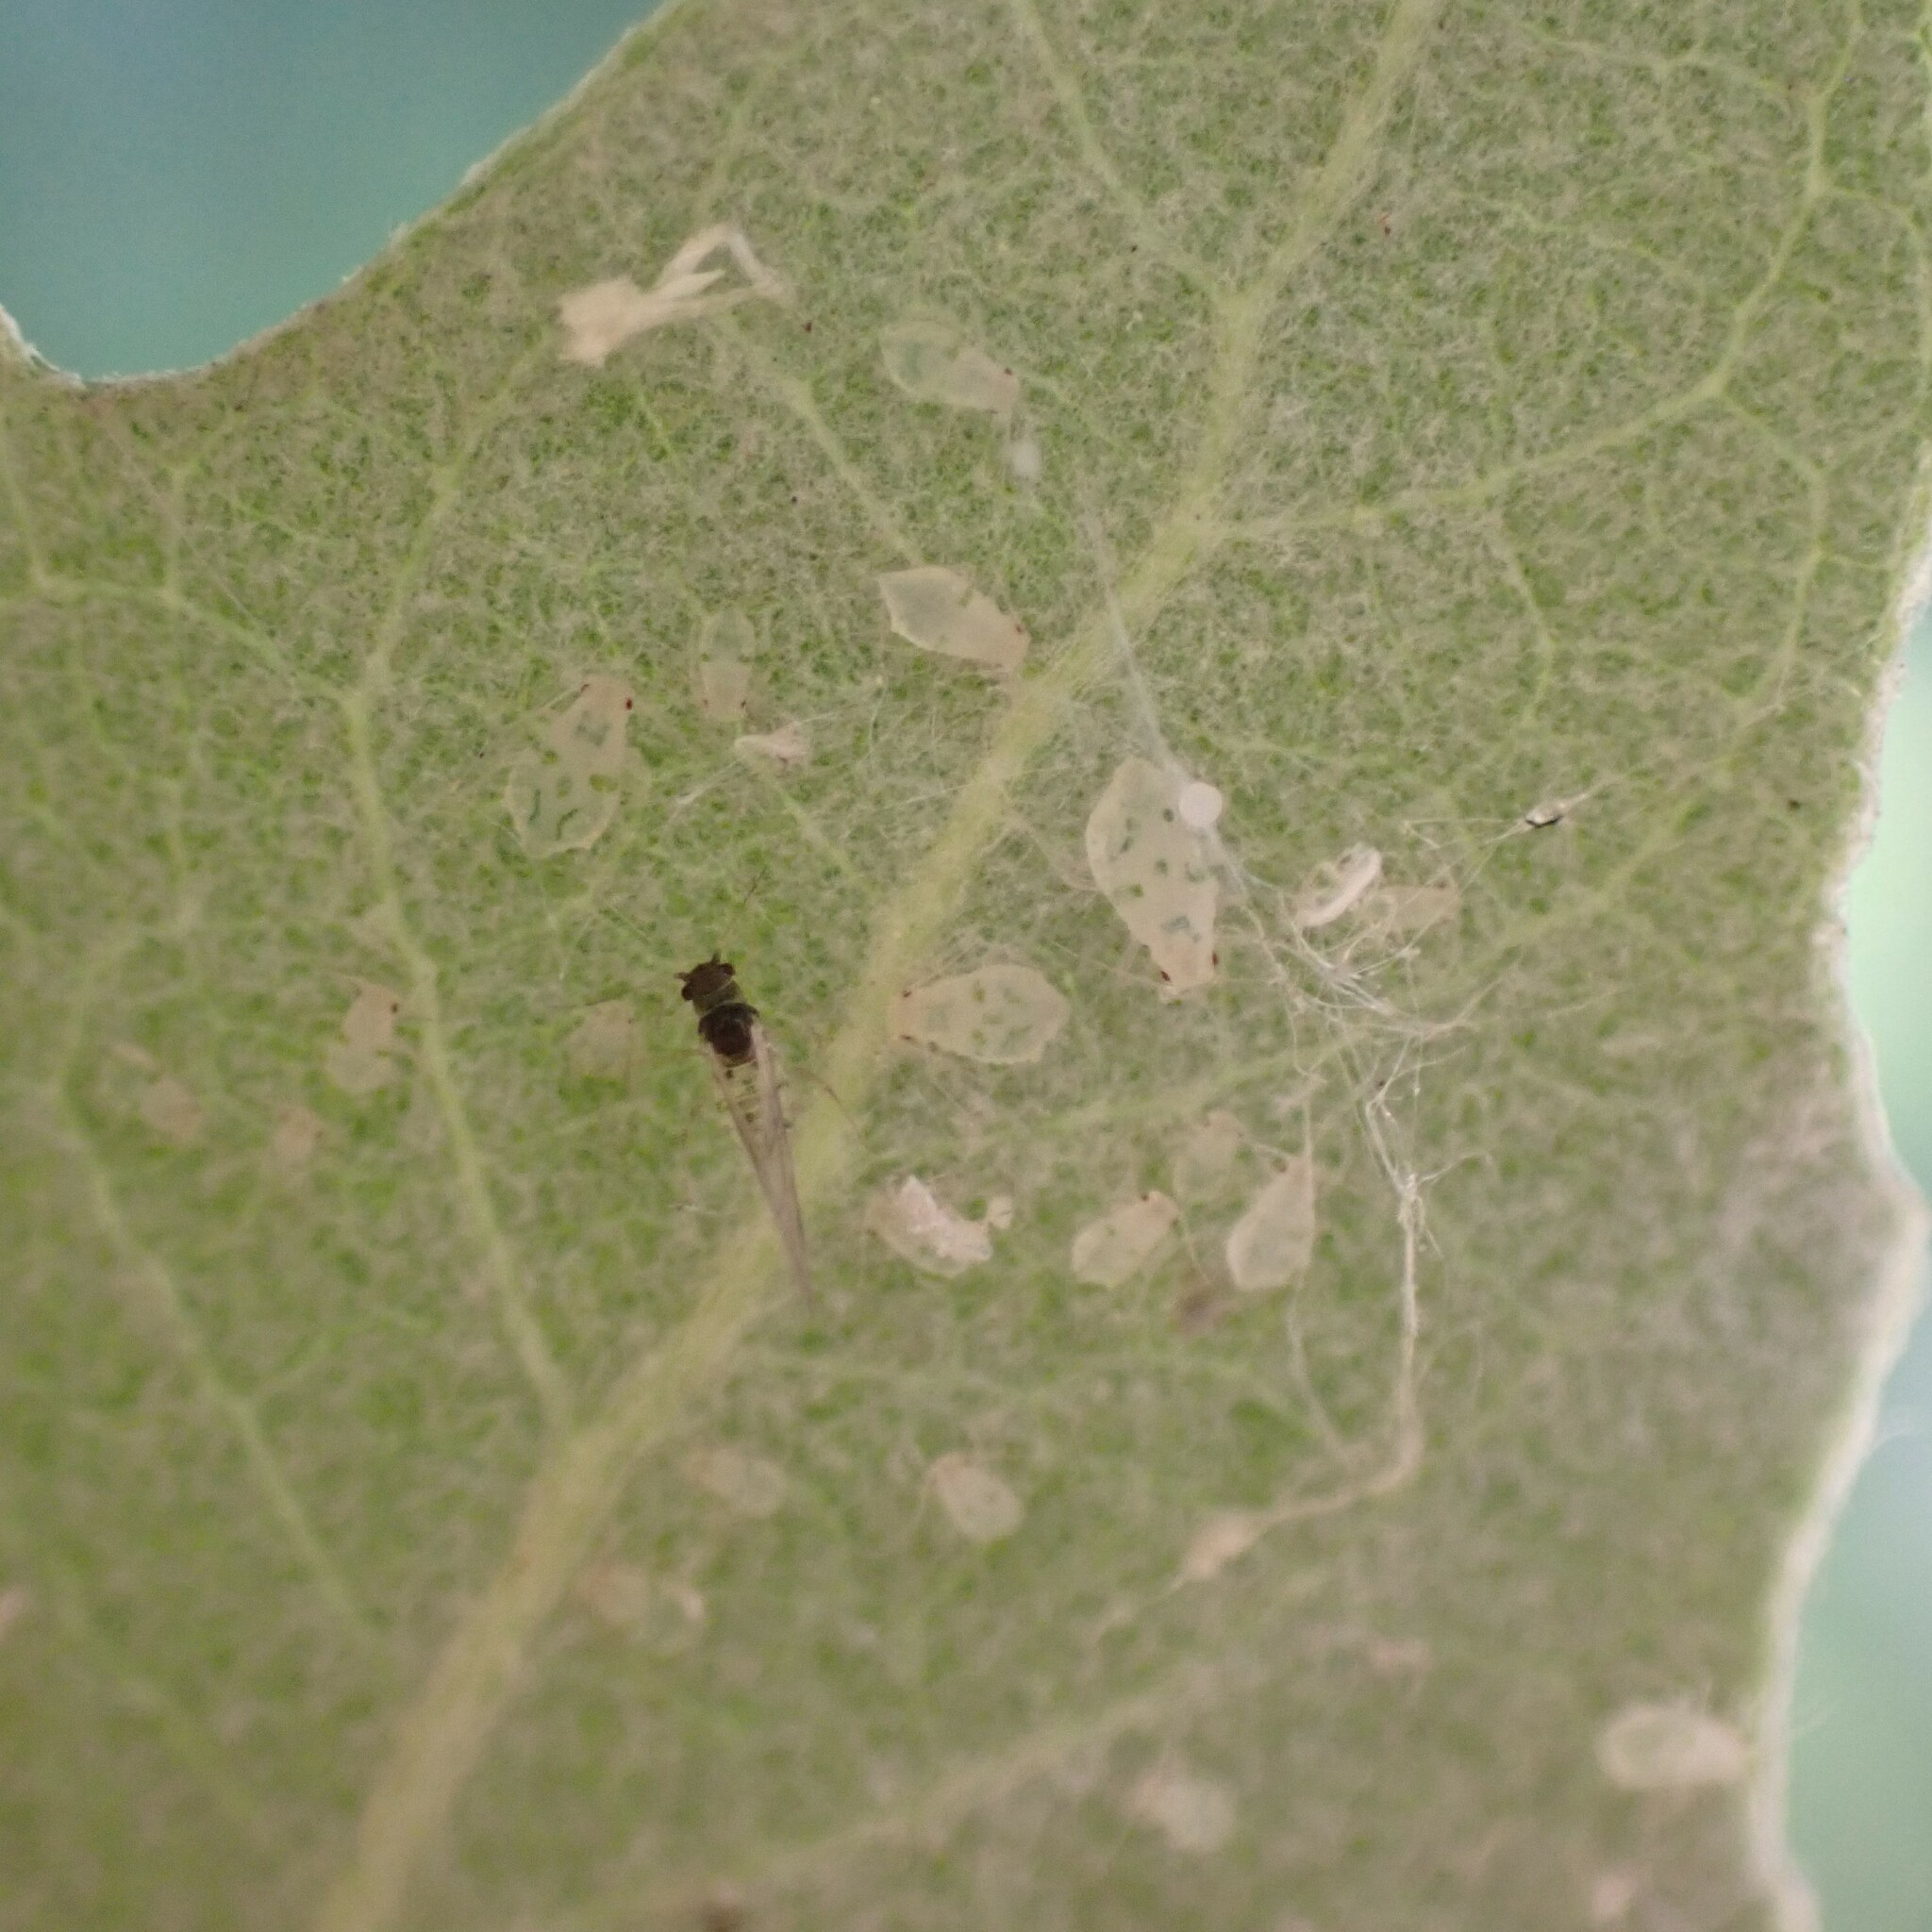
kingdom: Animalia
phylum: Arthropoda
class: Insecta
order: Hemiptera
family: Aphididae
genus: Chaitophorus
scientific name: Chaitophorus populialbae
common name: Aphid
